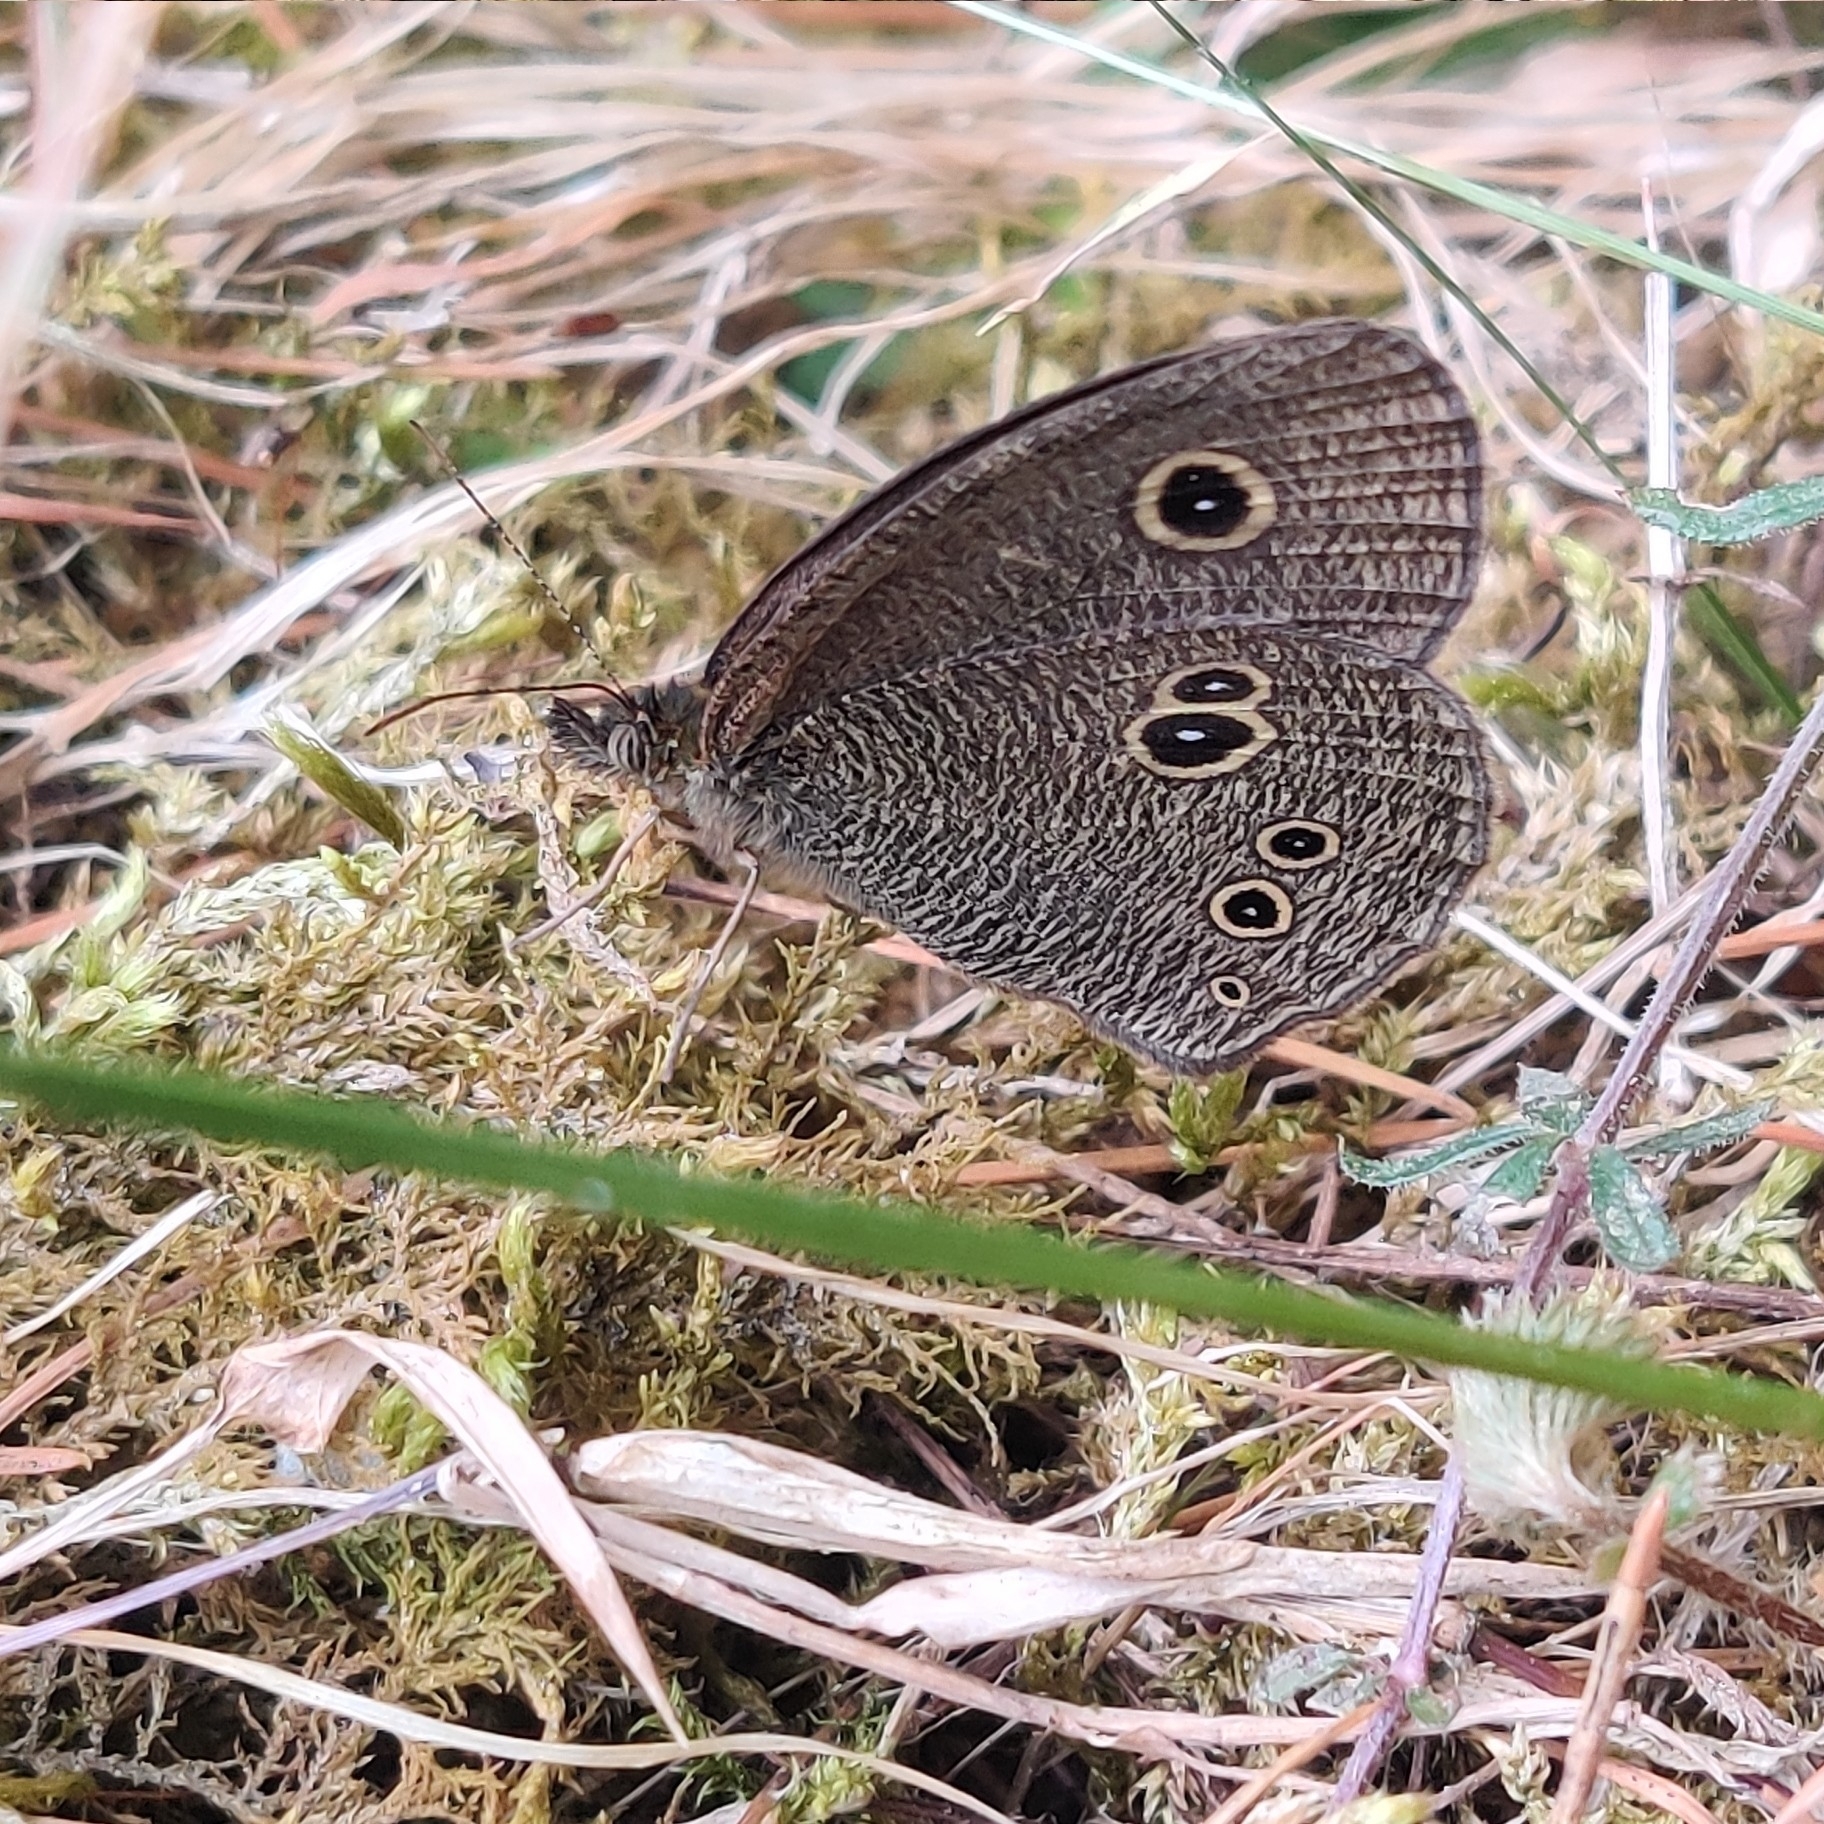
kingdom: Animalia
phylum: Arthropoda
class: Insecta
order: Lepidoptera
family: Nymphalidae
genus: Ypthima
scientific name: Ypthima nikaea
